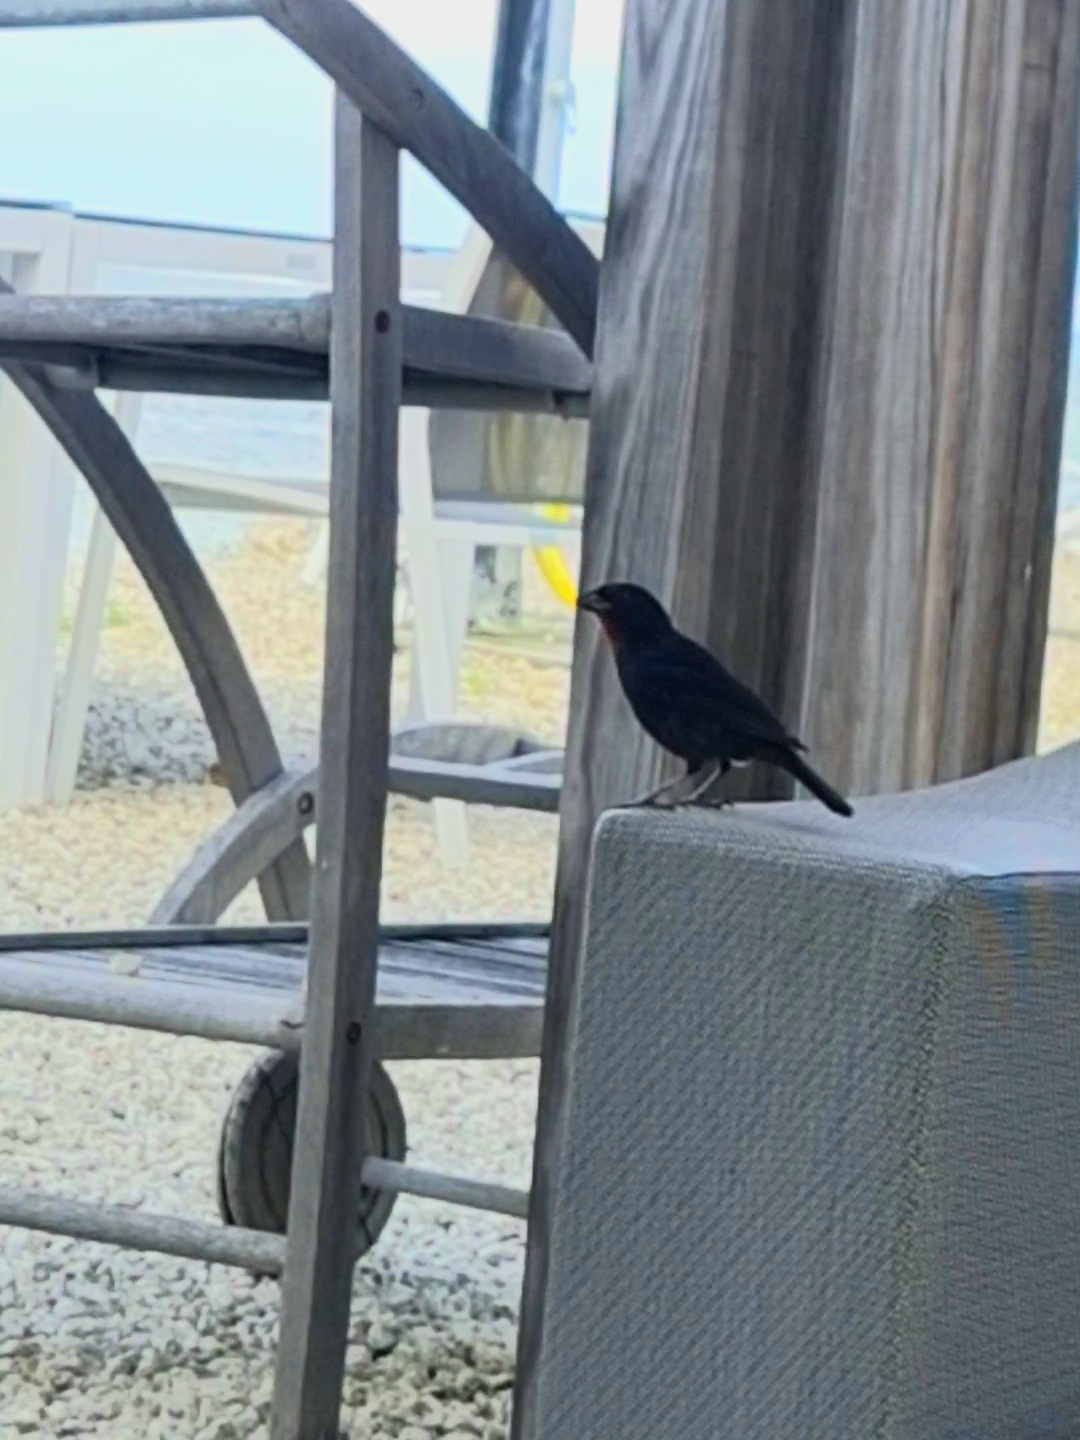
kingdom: Animalia
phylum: Chordata
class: Aves
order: Passeriformes
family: Thraupidae
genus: Loxigilla
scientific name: Loxigilla noctis
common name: Lesser antillean bullfinch
